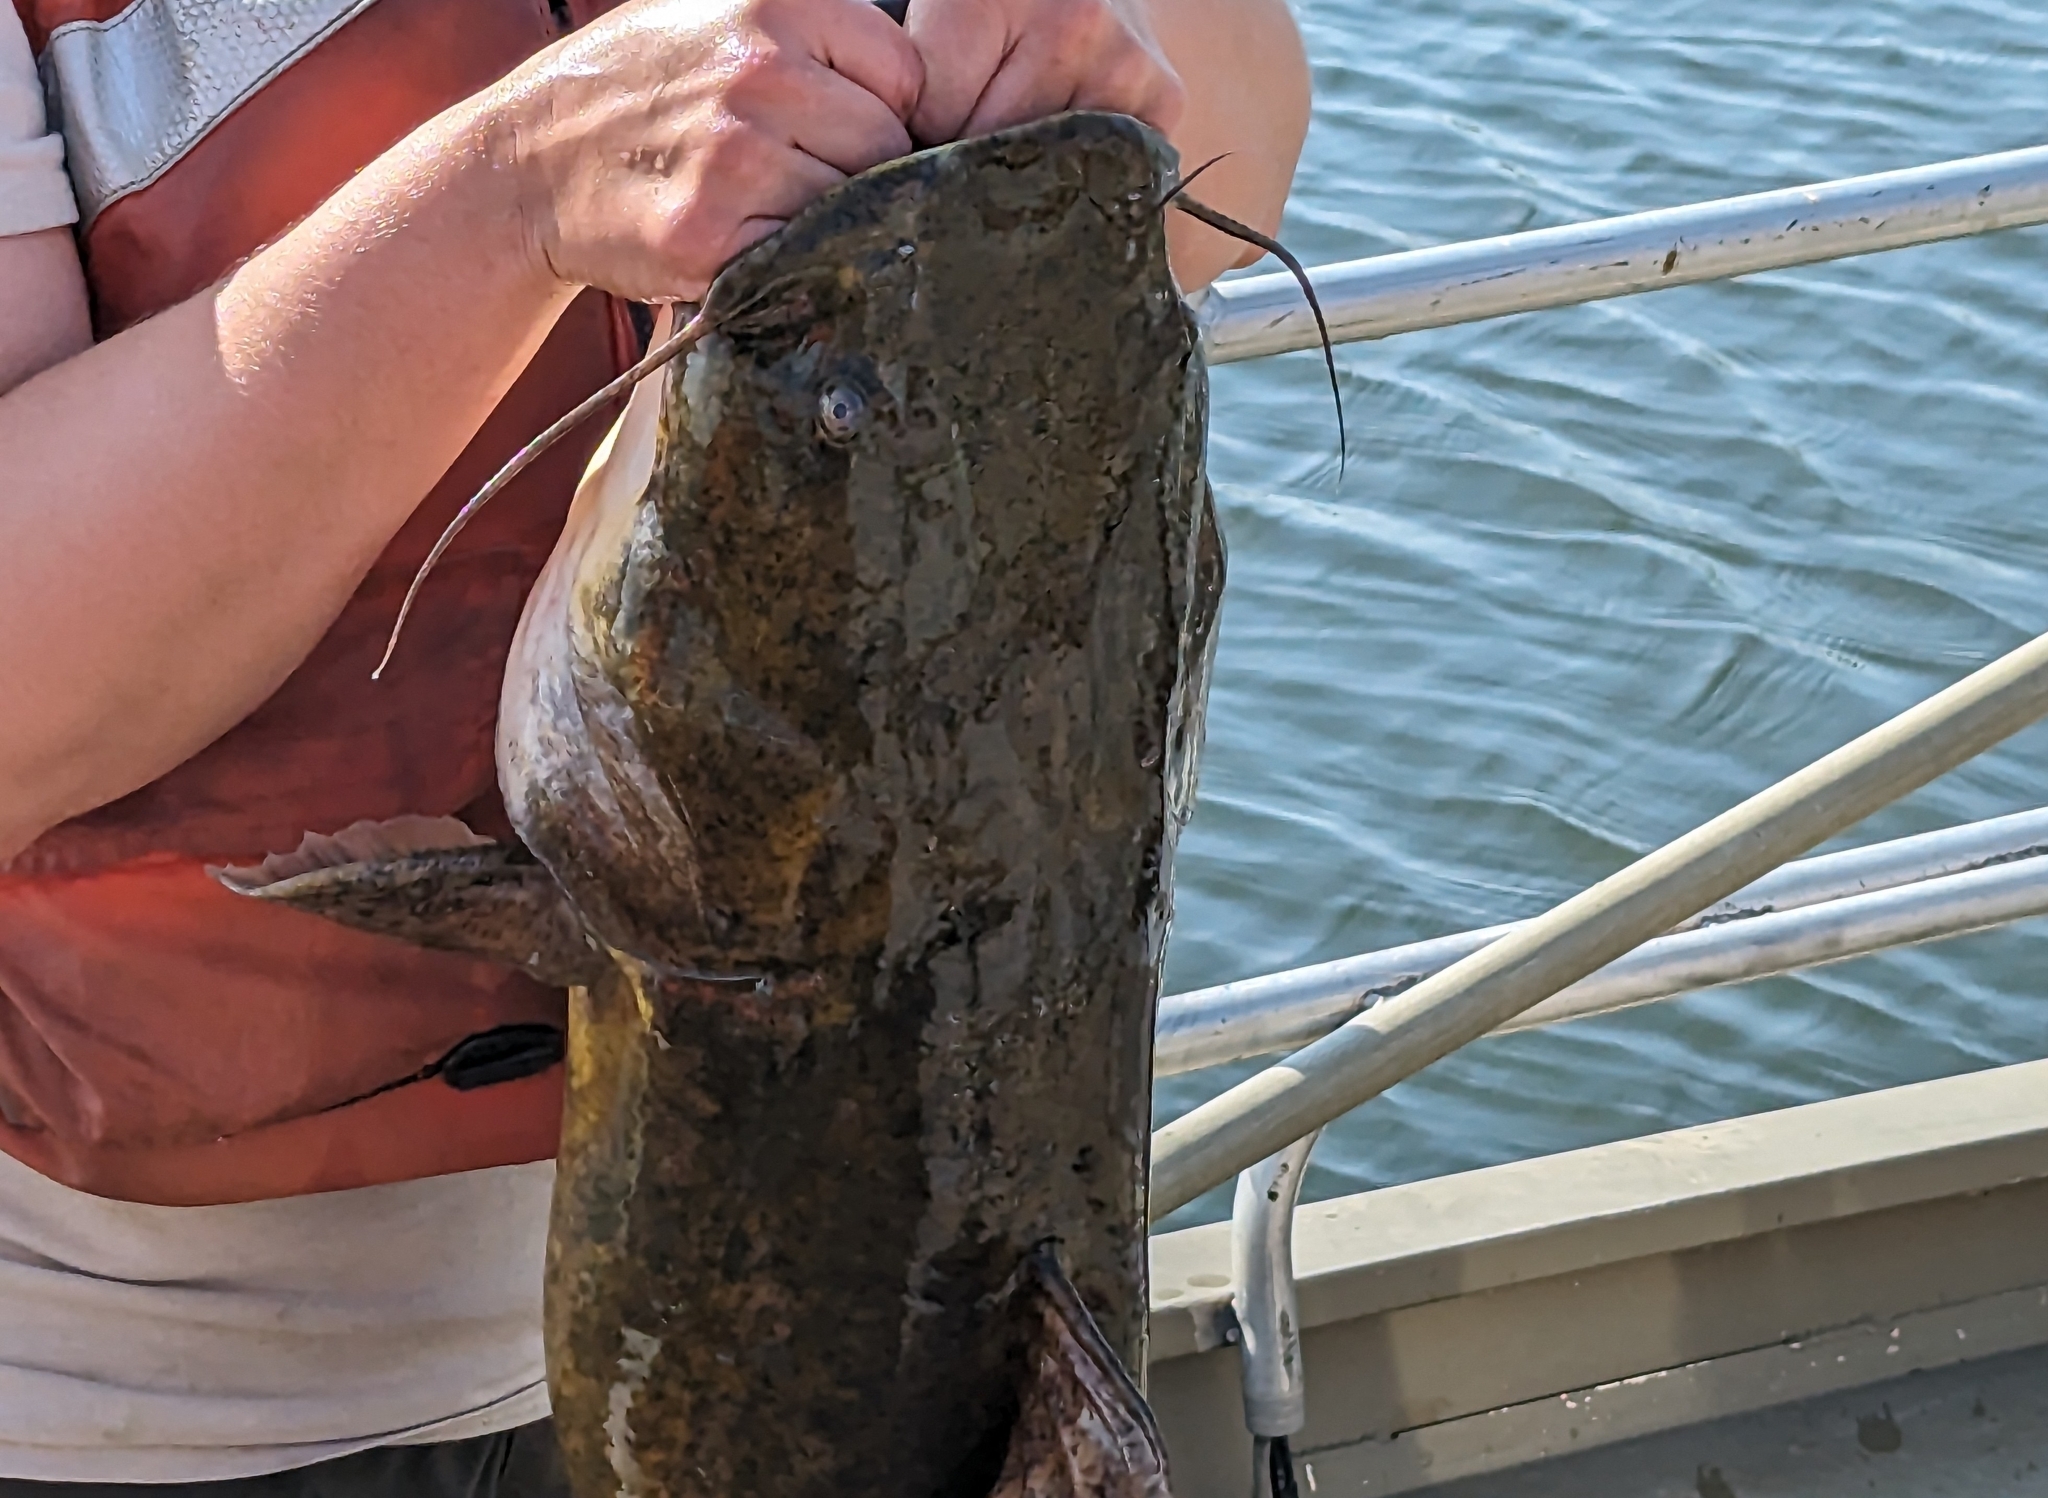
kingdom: Animalia
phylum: Chordata
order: Siluriformes
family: Ictaluridae
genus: Pylodictis
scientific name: Pylodictis olivaris
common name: Flathead catfish
